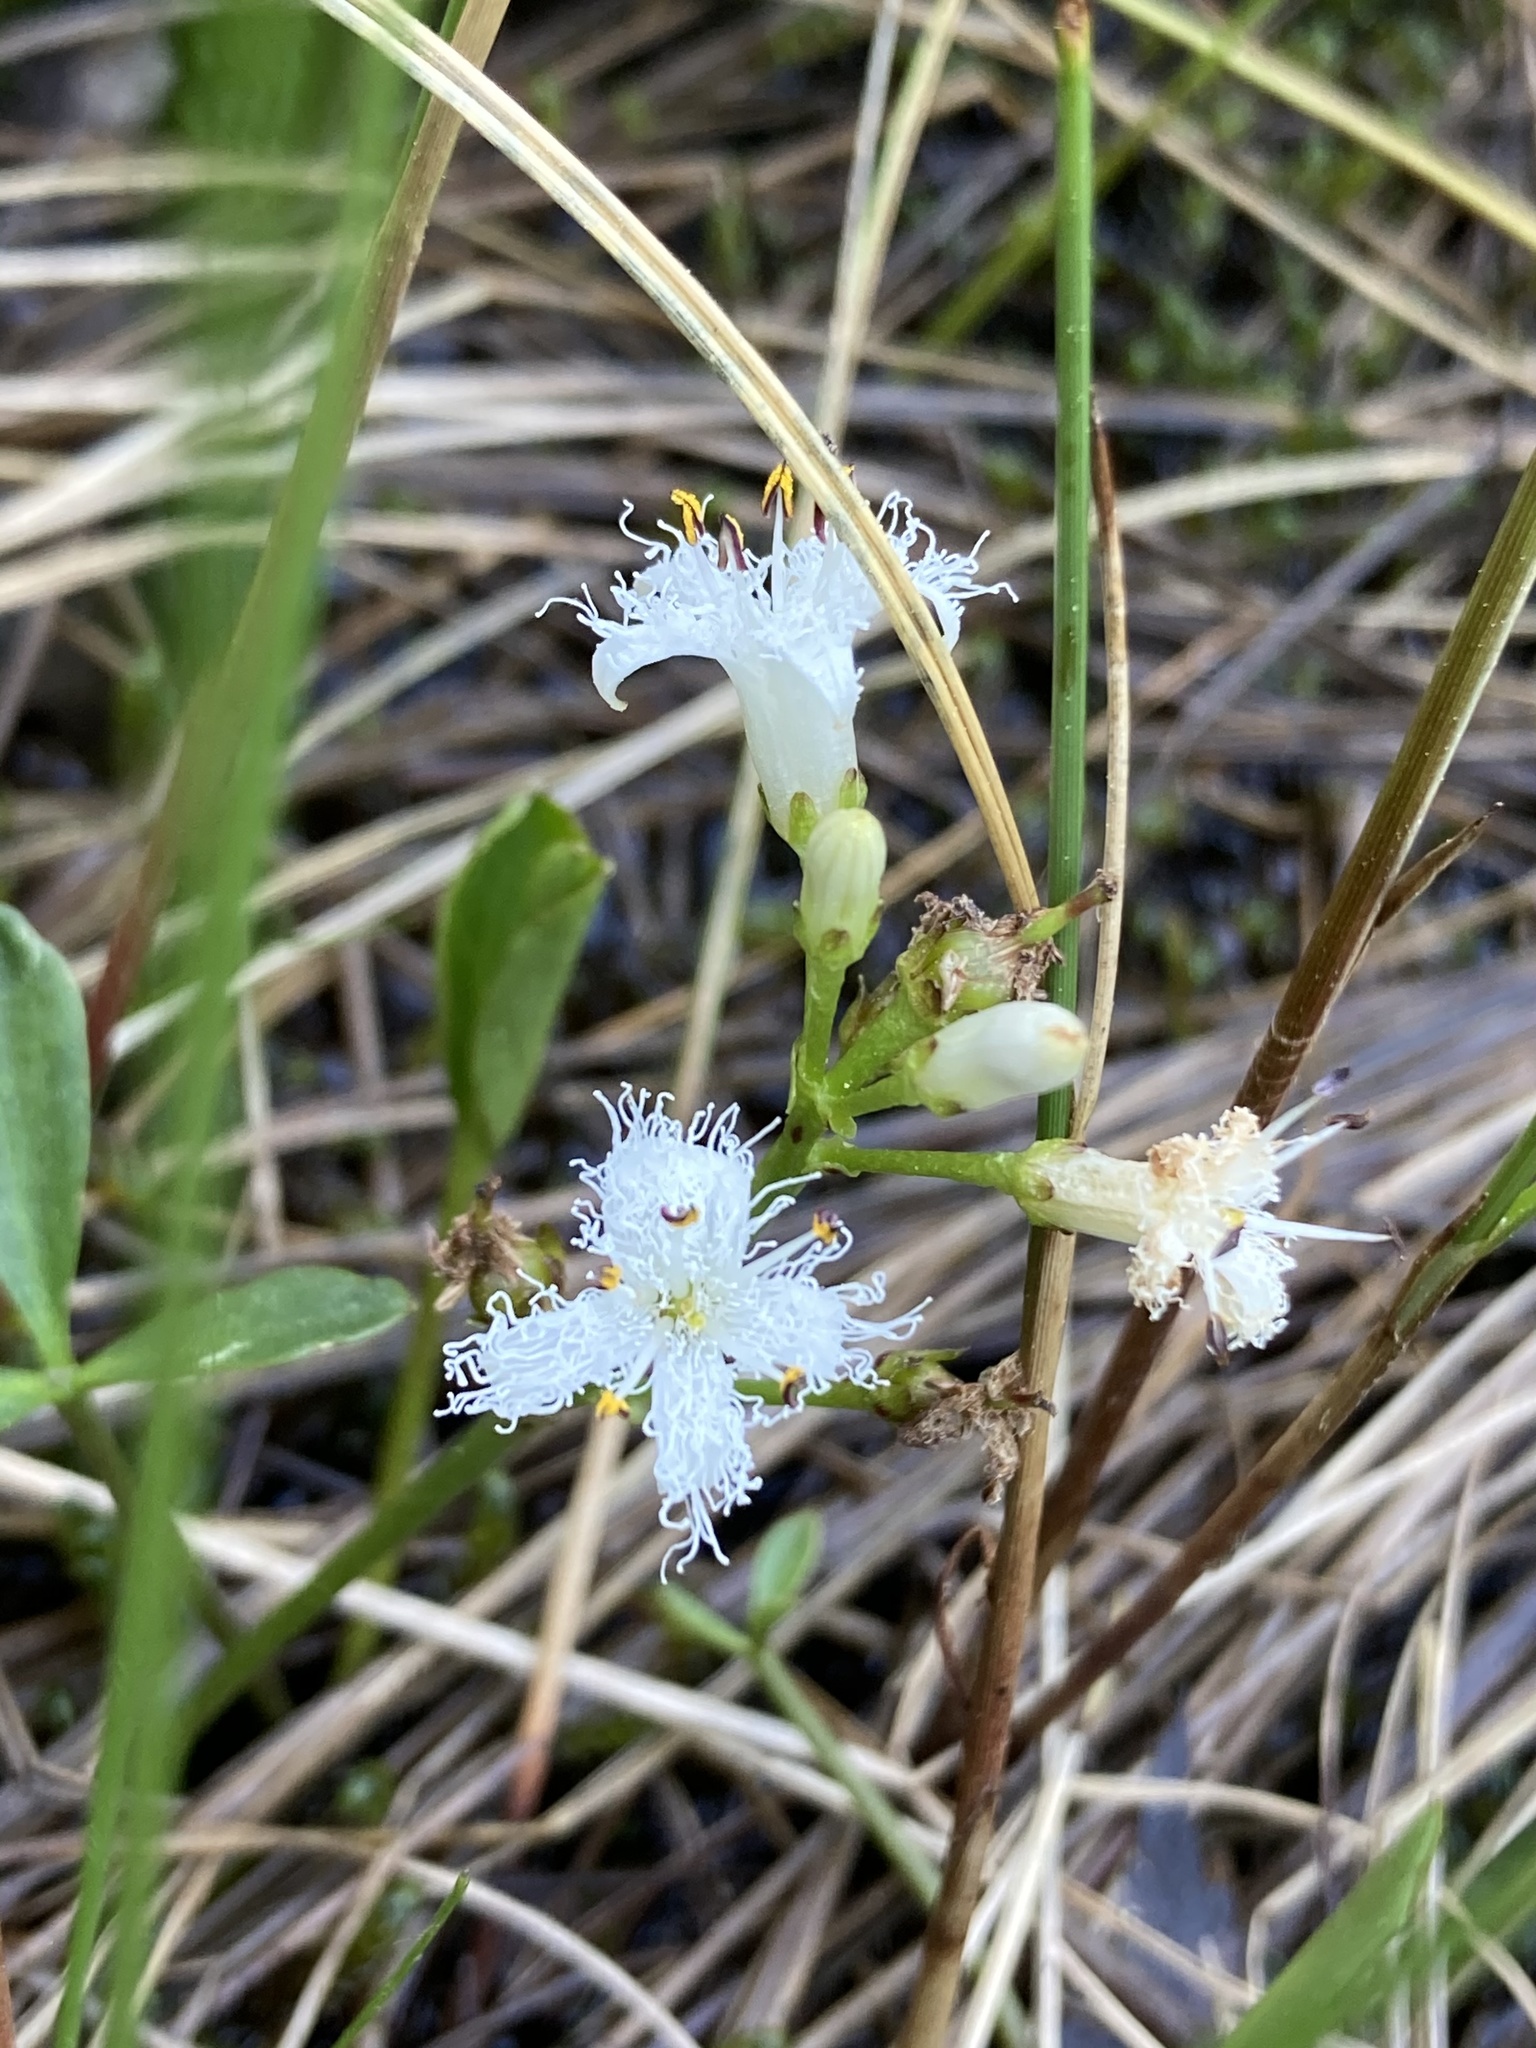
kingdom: Plantae
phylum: Tracheophyta
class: Magnoliopsida
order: Asterales
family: Menyanthaceae
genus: Menyanthes
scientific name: Menyanthes trifoliata
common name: Bogbean
